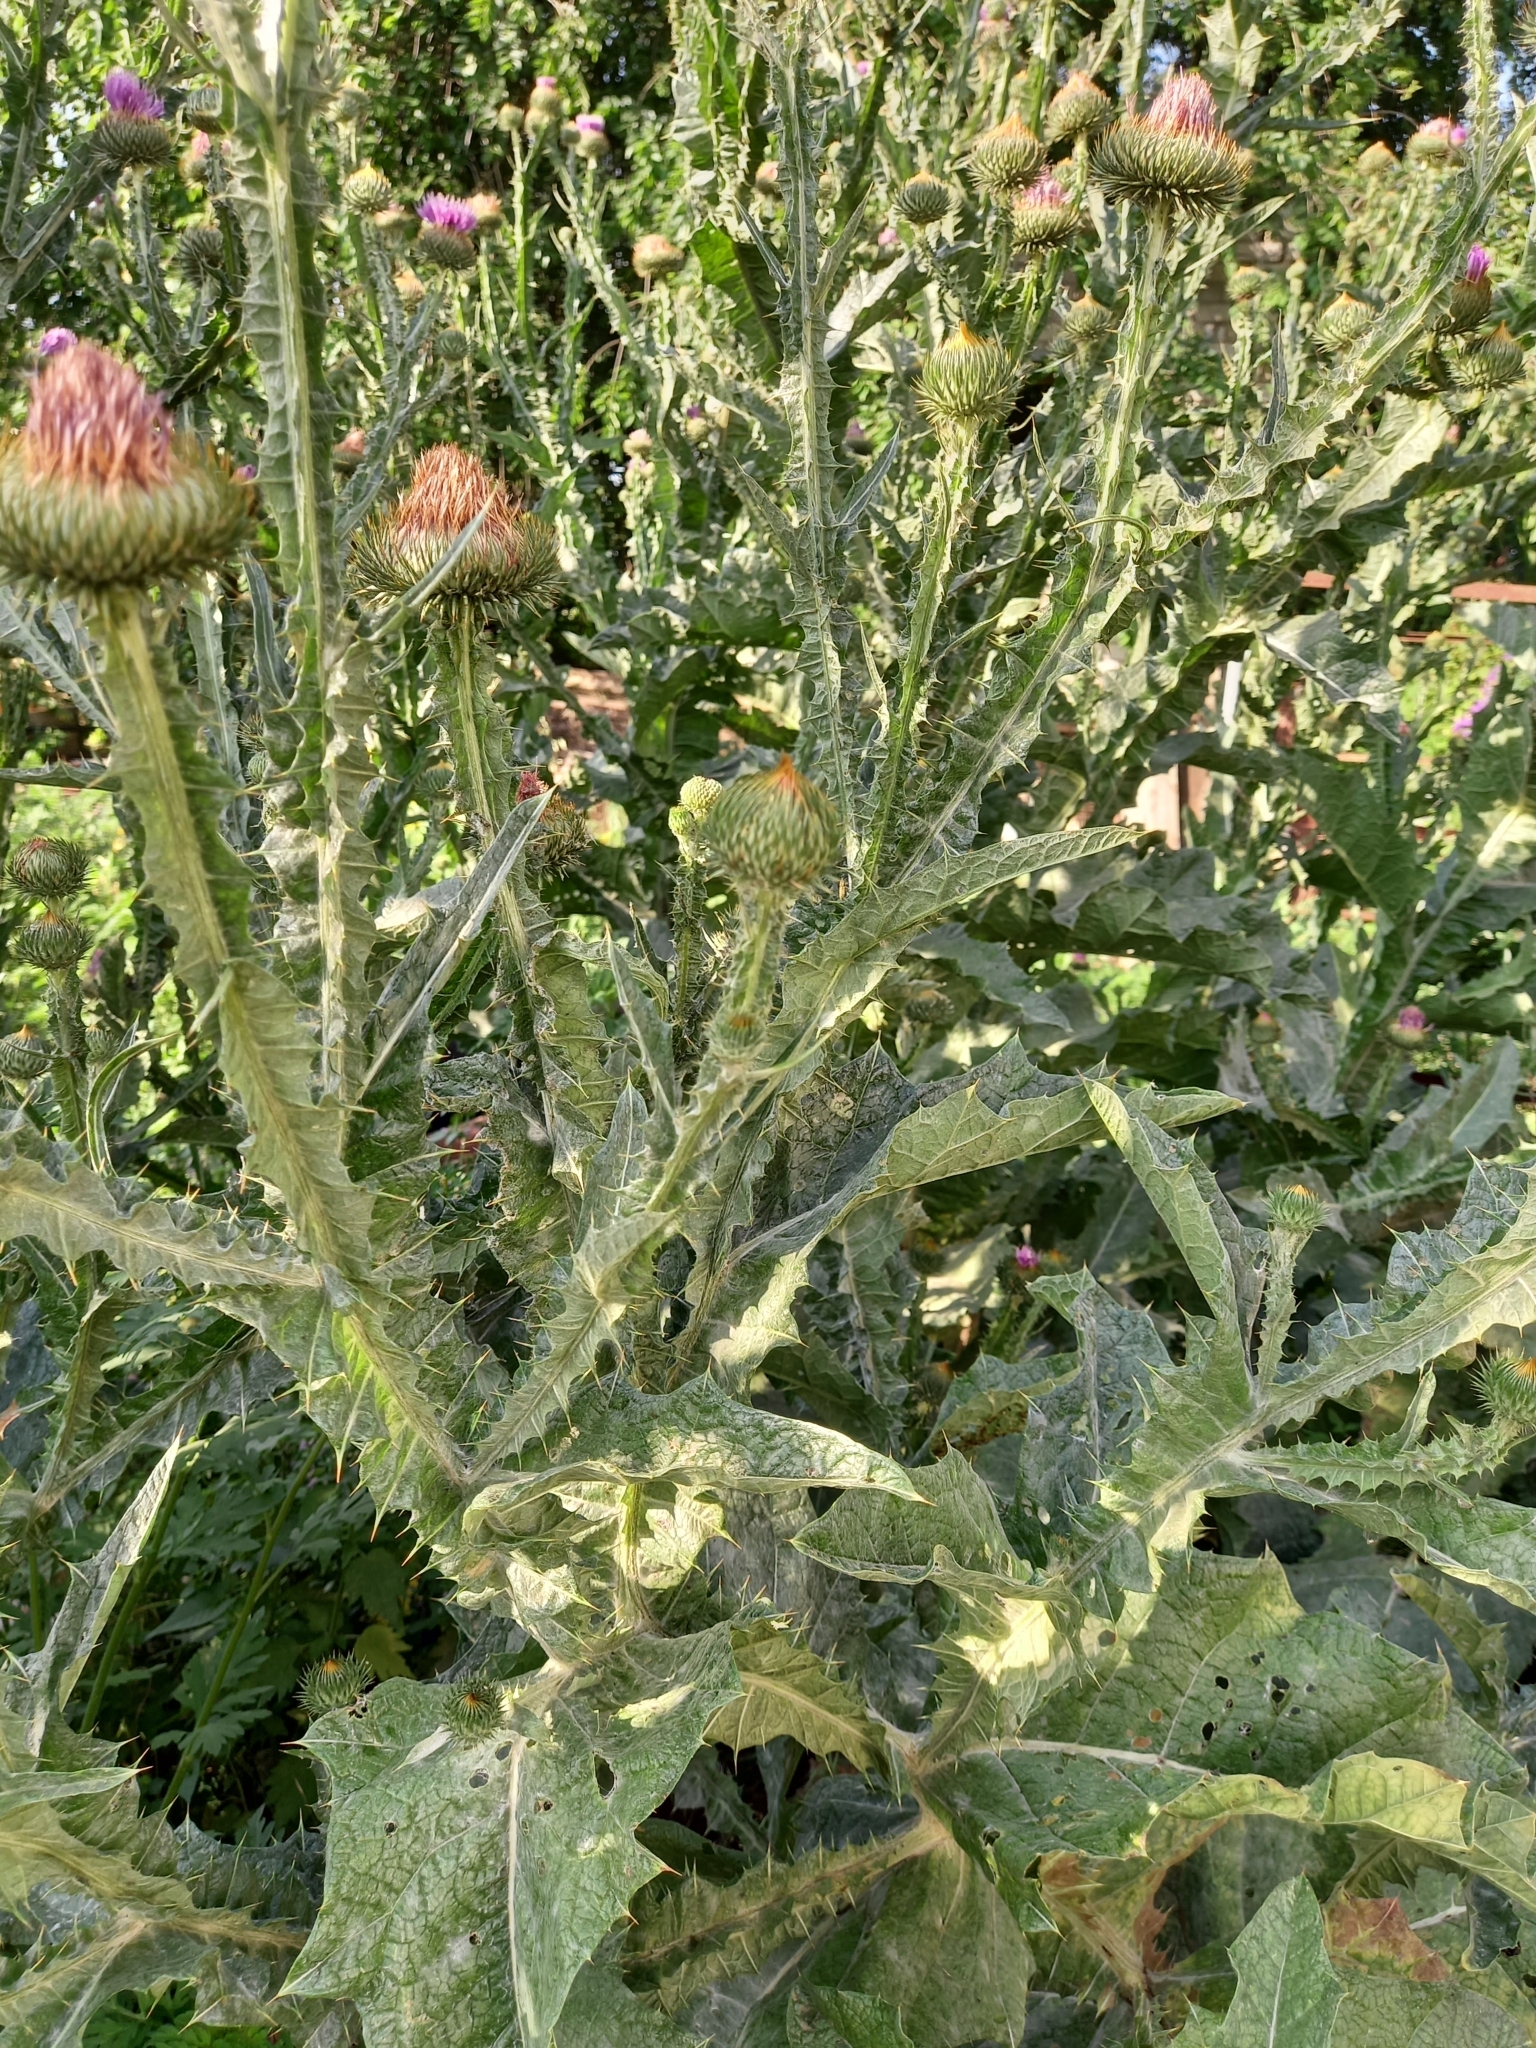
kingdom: Plantae
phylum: Tracheophyta
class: Magnoliopsida
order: Asterales
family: Asteraceae
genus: Onopordum
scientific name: Onopordum acanthium
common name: Scotch thistle
